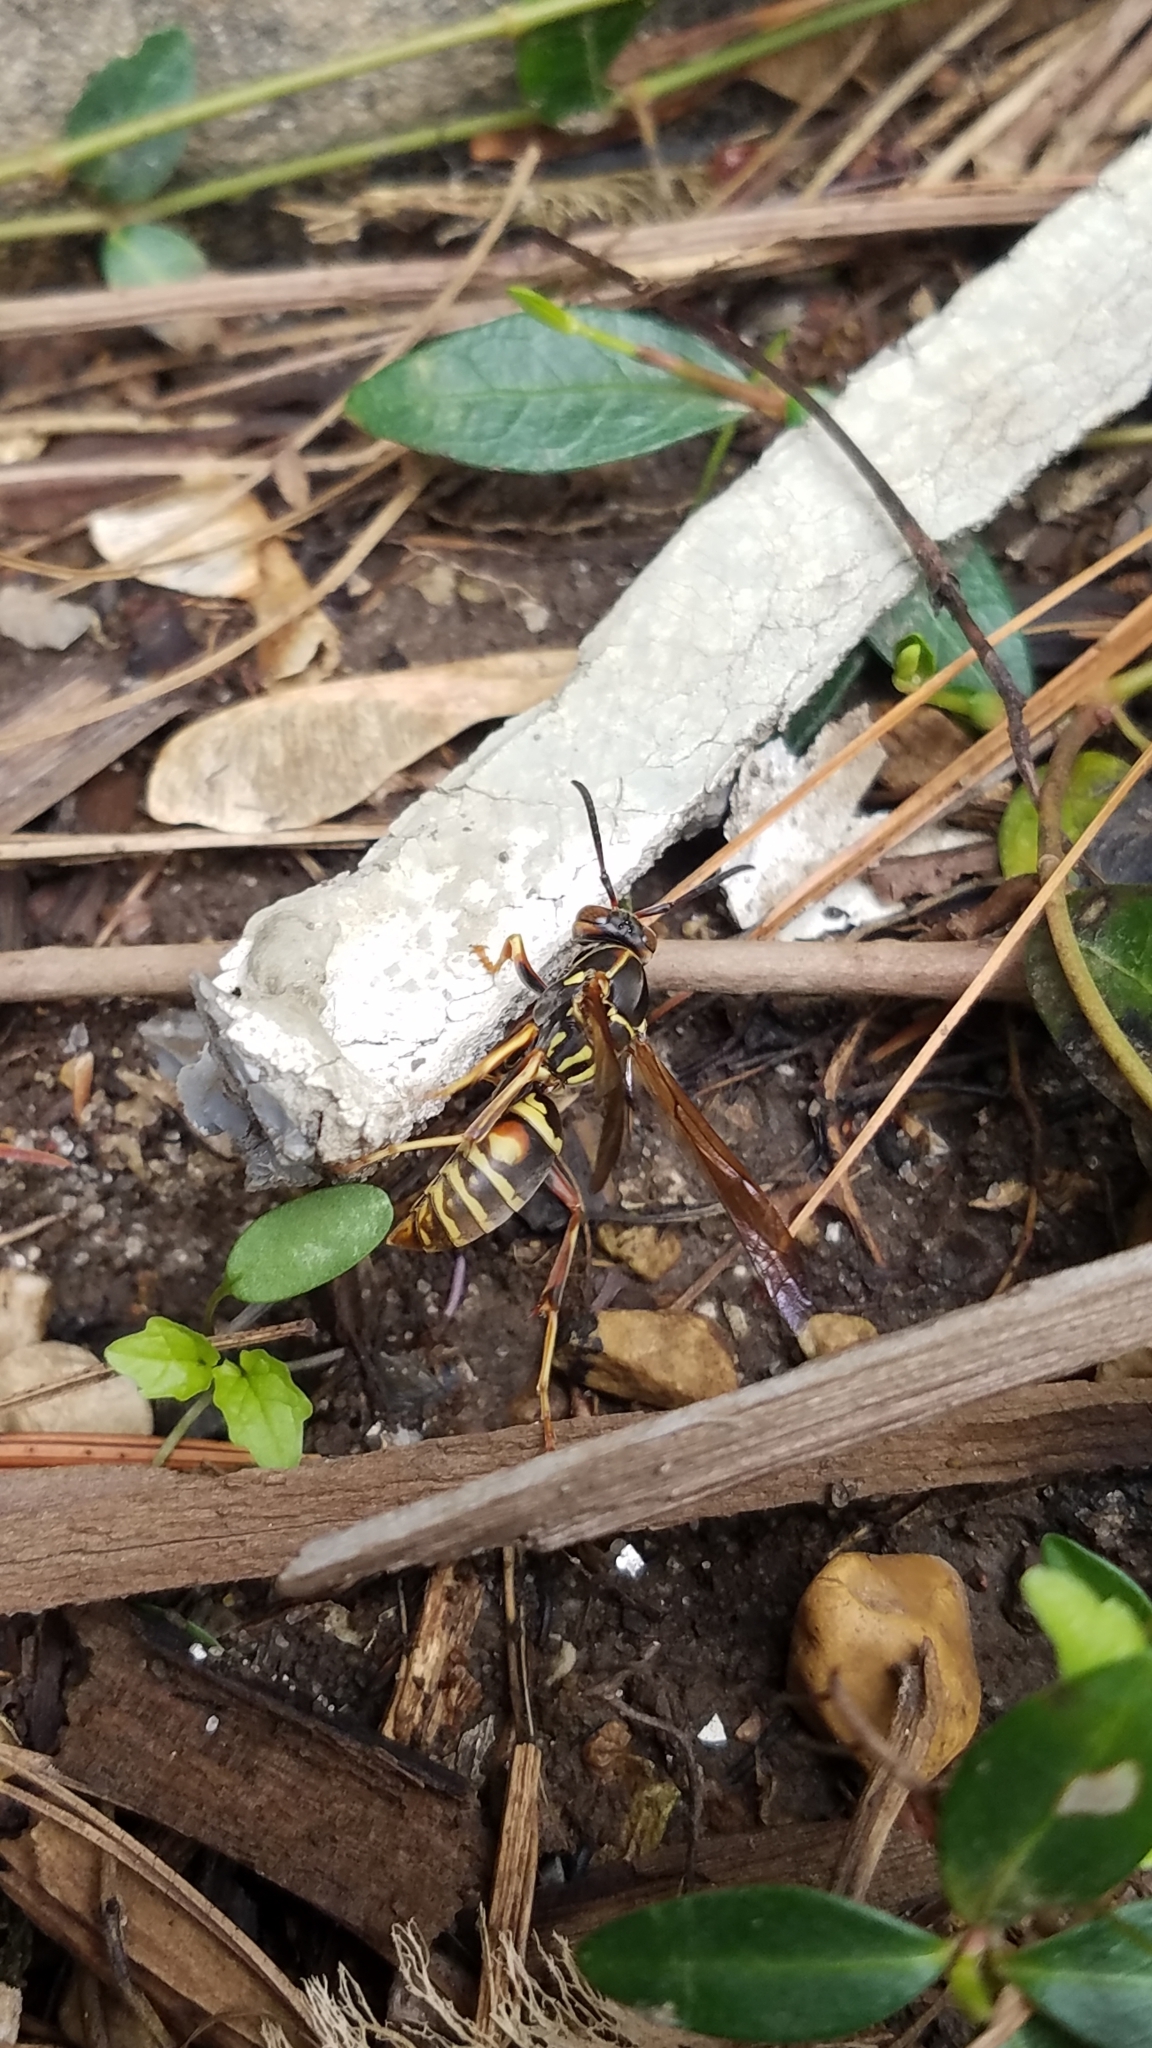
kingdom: Animalia
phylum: Arthropoda
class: Insecta
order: Hymenoptera
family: Eumenidae
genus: Polistes
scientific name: Polistes fuscatus
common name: Dark paper wasp
